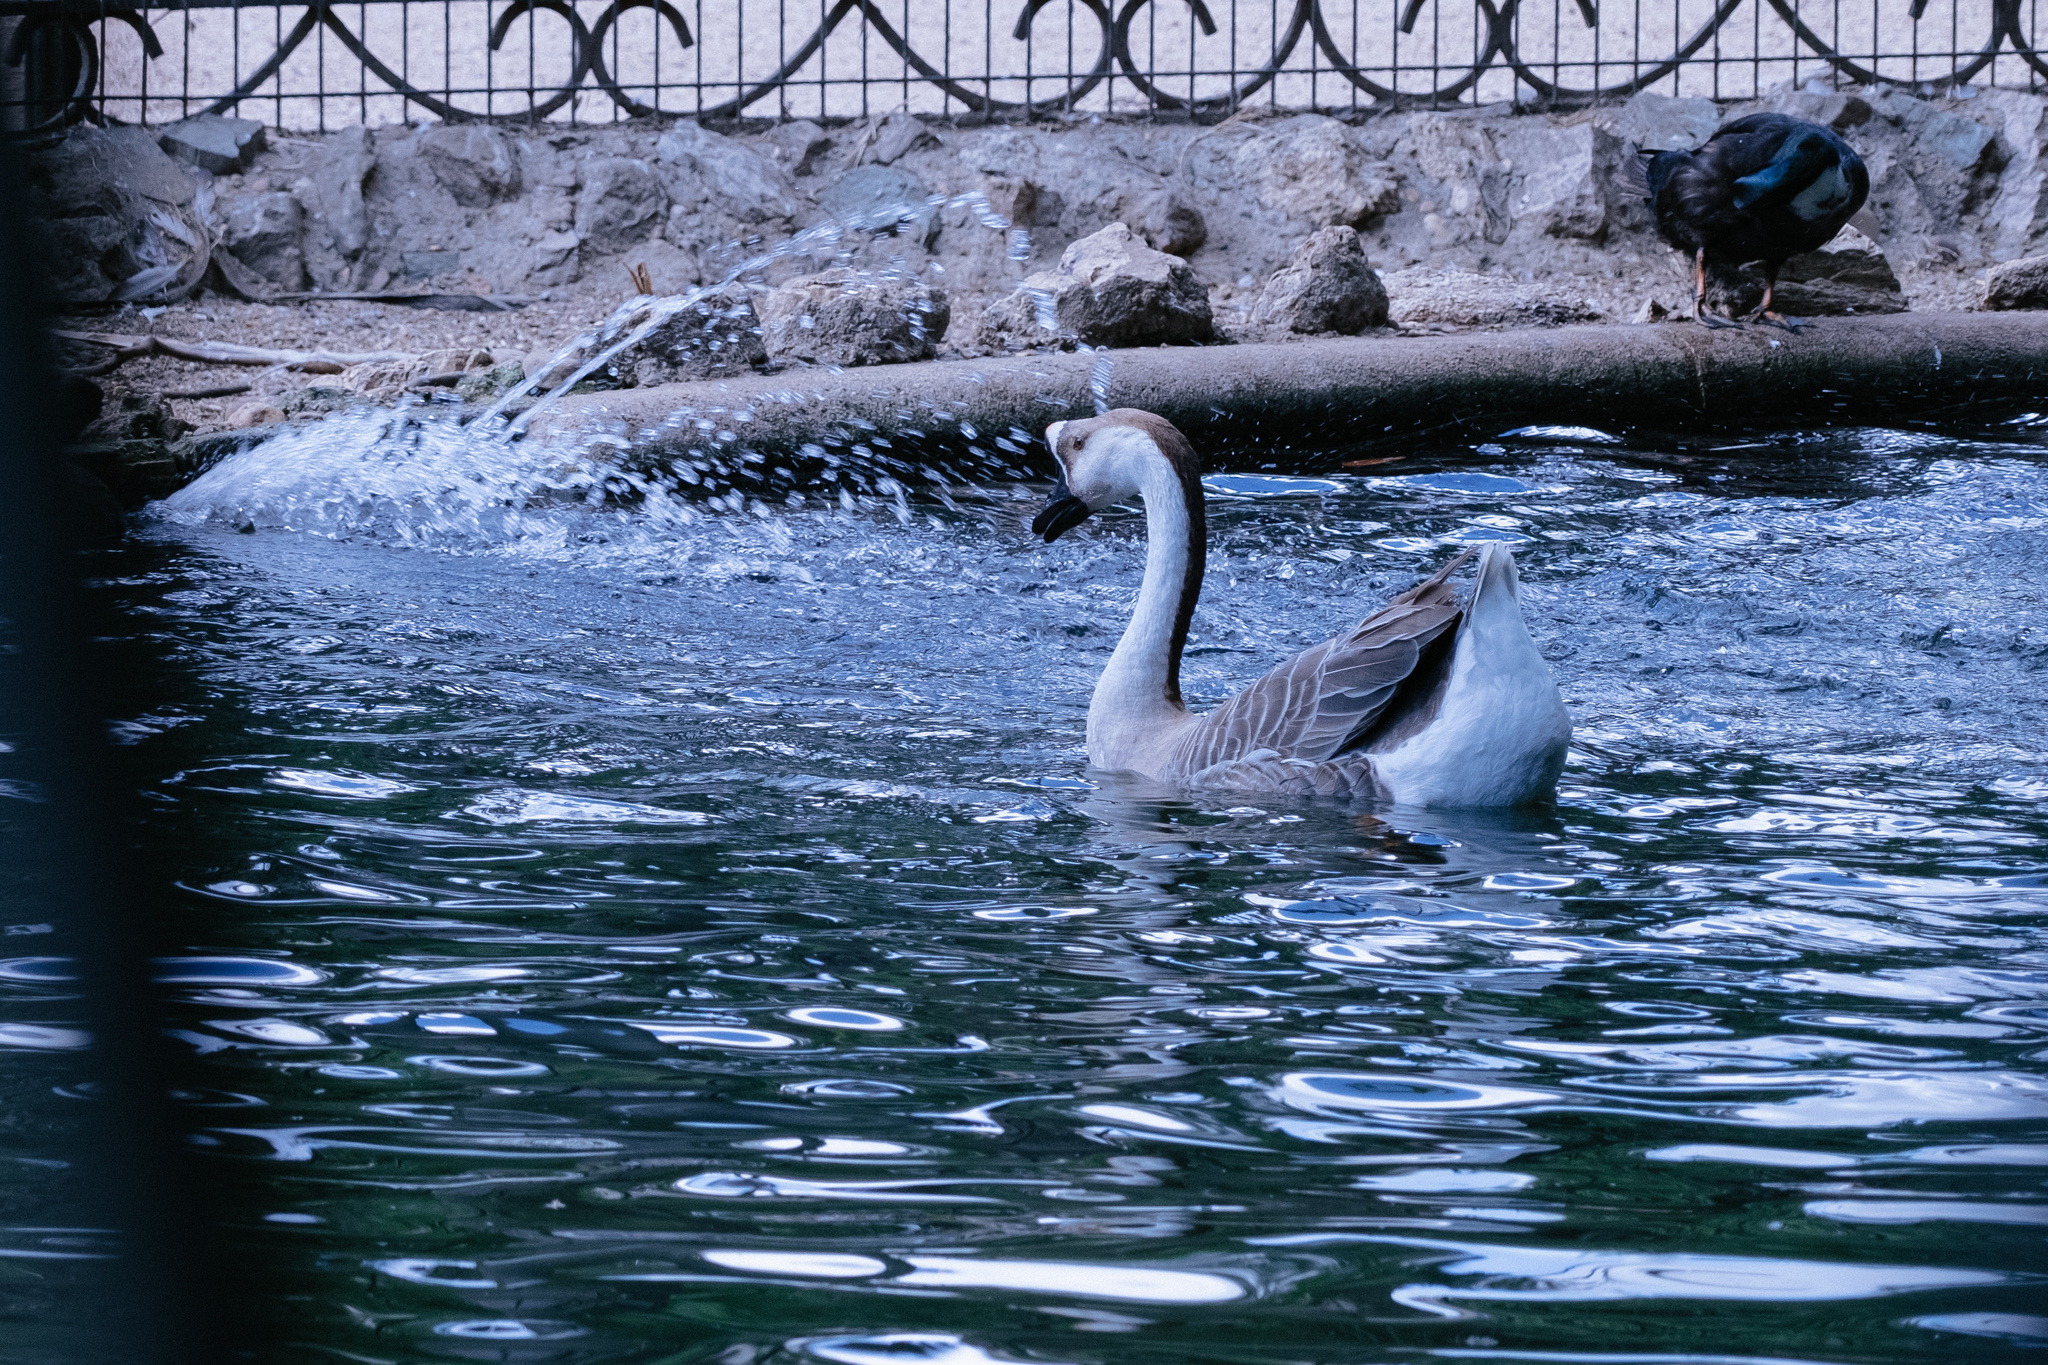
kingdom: Animalia
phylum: Chordata
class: Aves
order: Anseriformes
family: Anatidae
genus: Anser
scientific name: Anser cygnoides
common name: Swan goose
